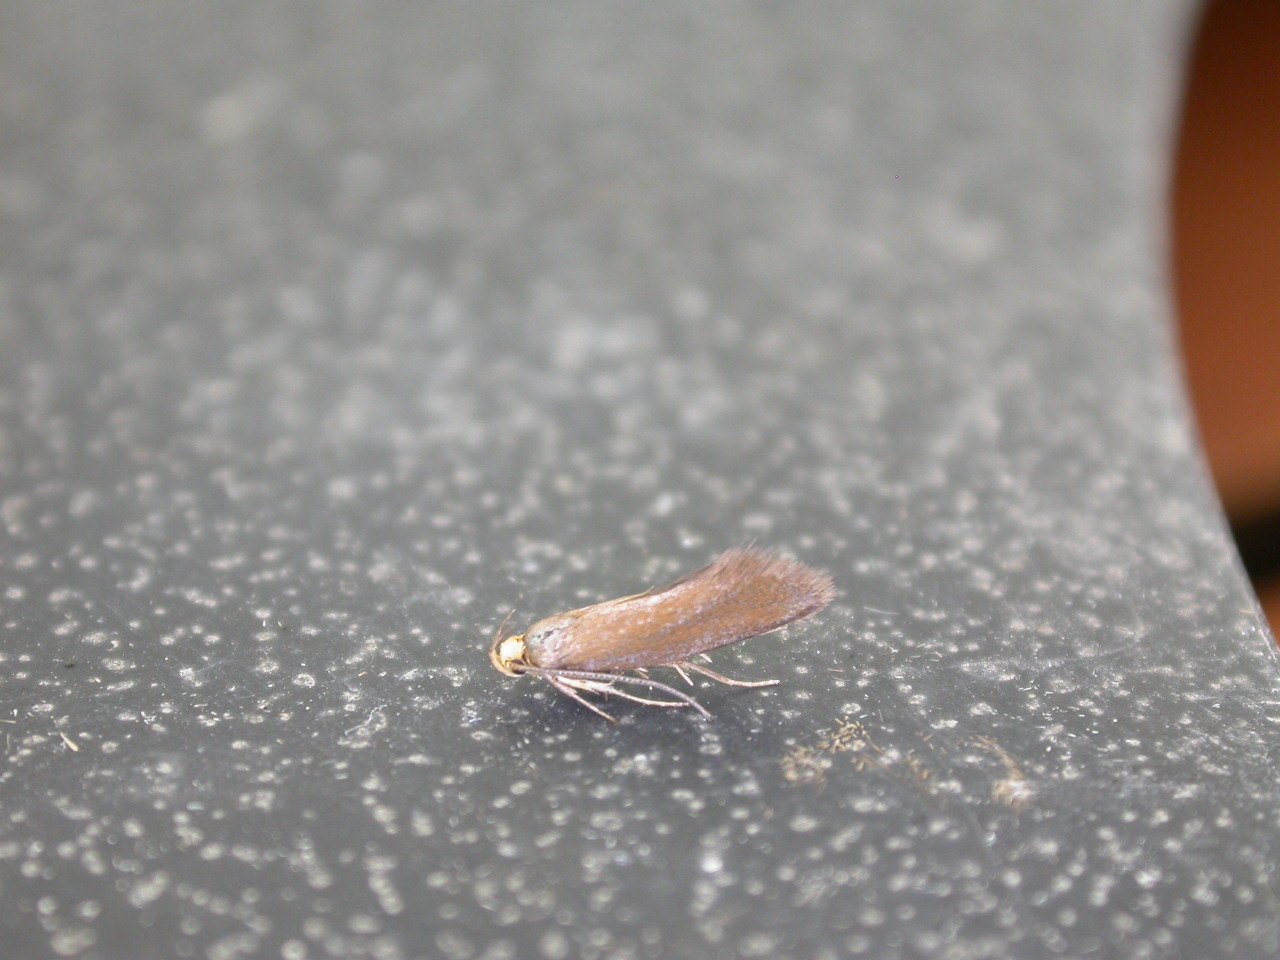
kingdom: Animalia
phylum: Arthropoda
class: Insecta
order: Lepidoptera
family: Oecophoridae
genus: Borkhausenia
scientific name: Borkhausenia Crassa unitella
